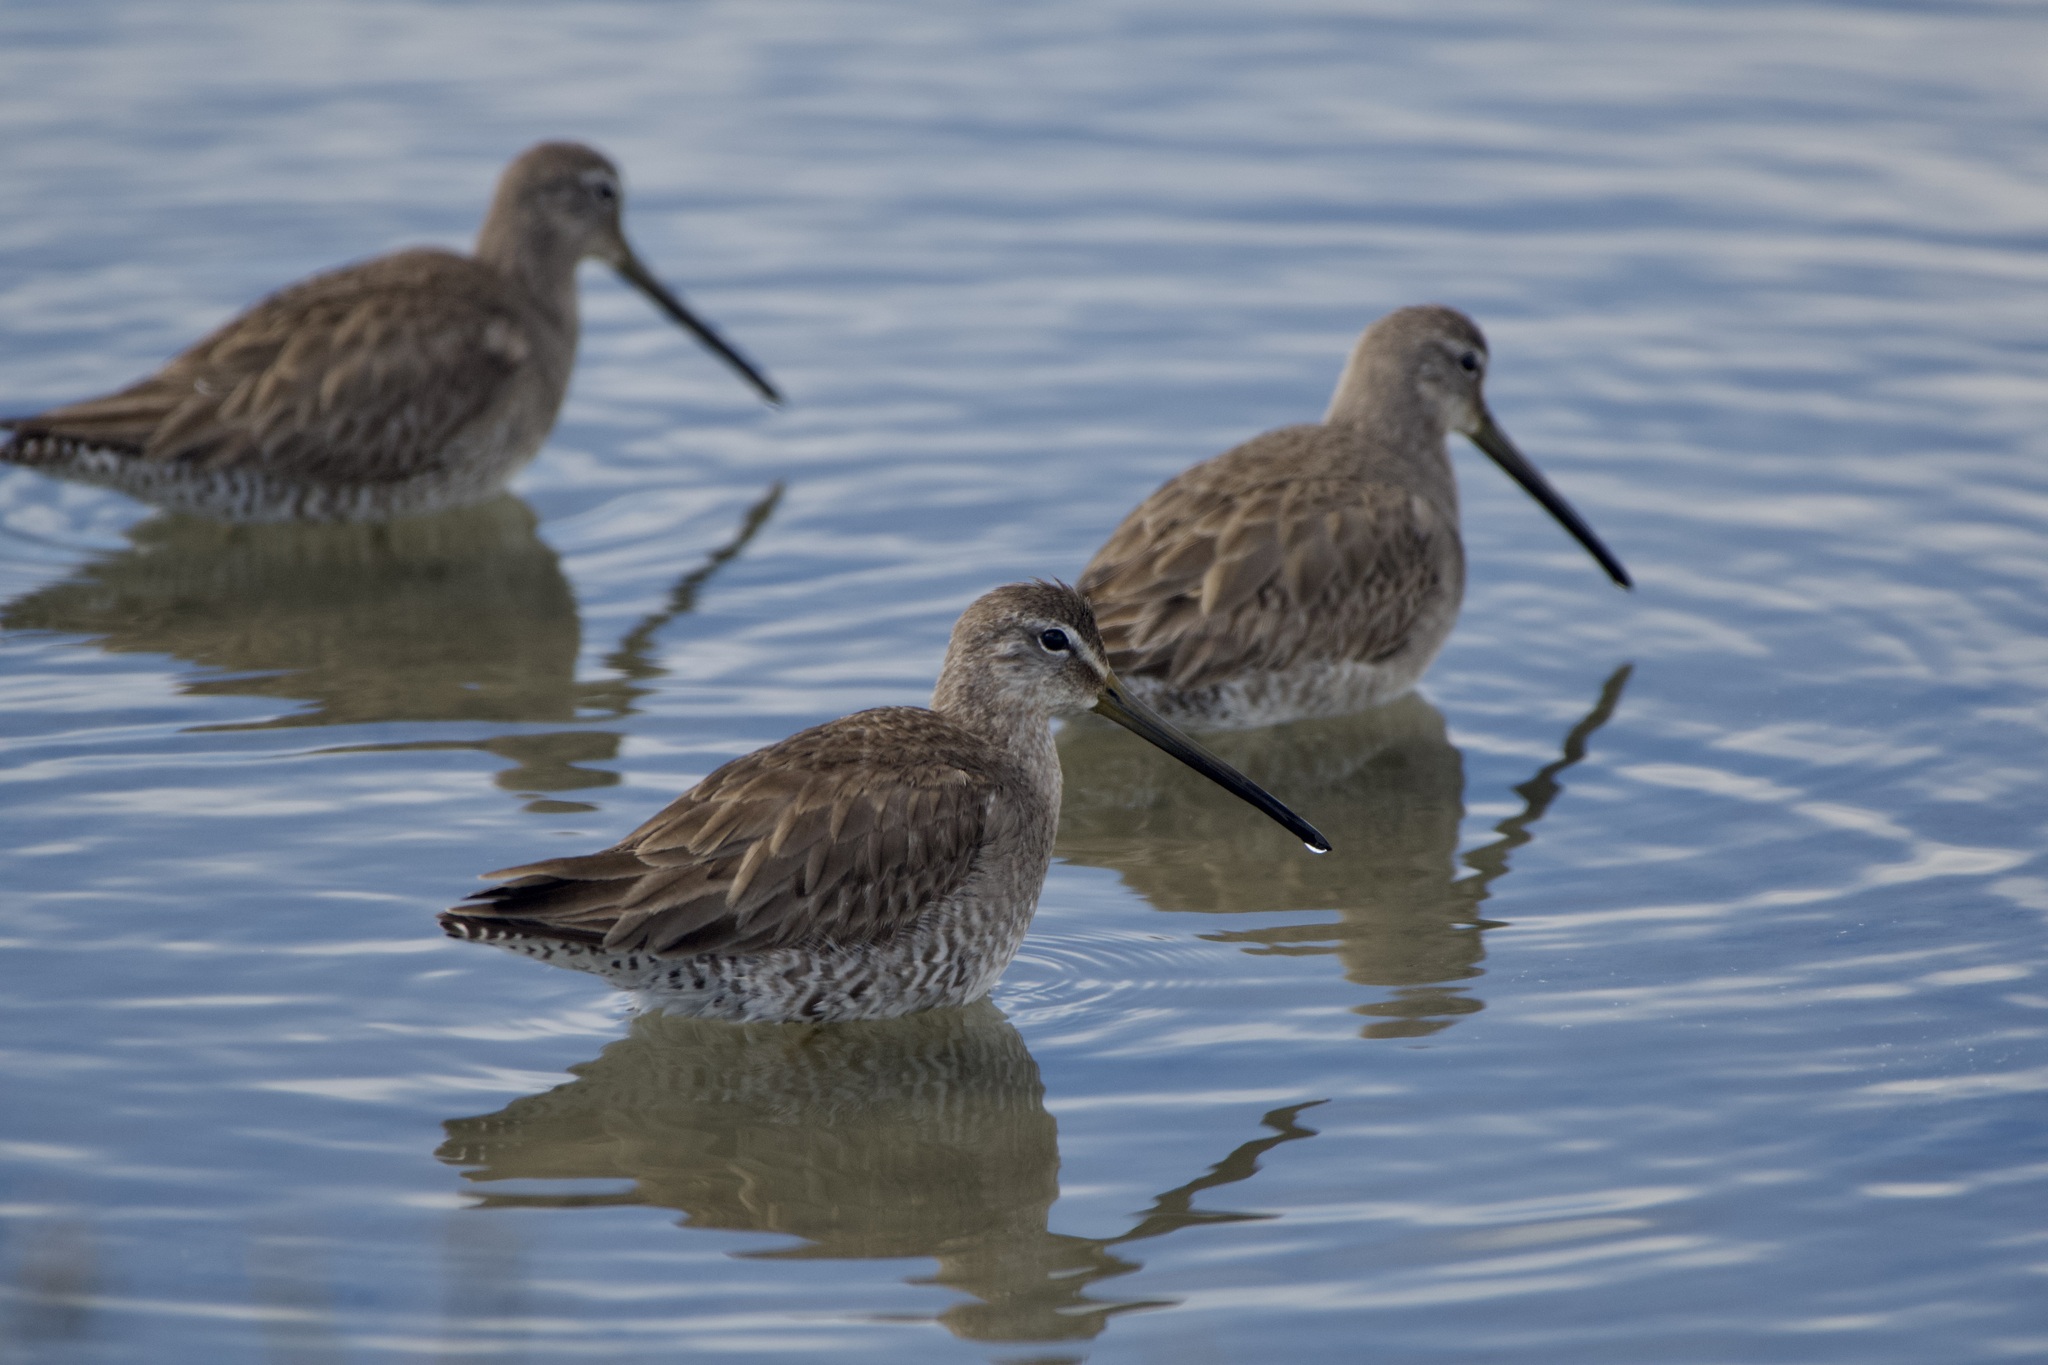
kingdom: Animalia
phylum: Chordata
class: Aves
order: Charadriiformes
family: Scolopacidae
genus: Limnodromus
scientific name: Limnodromus
